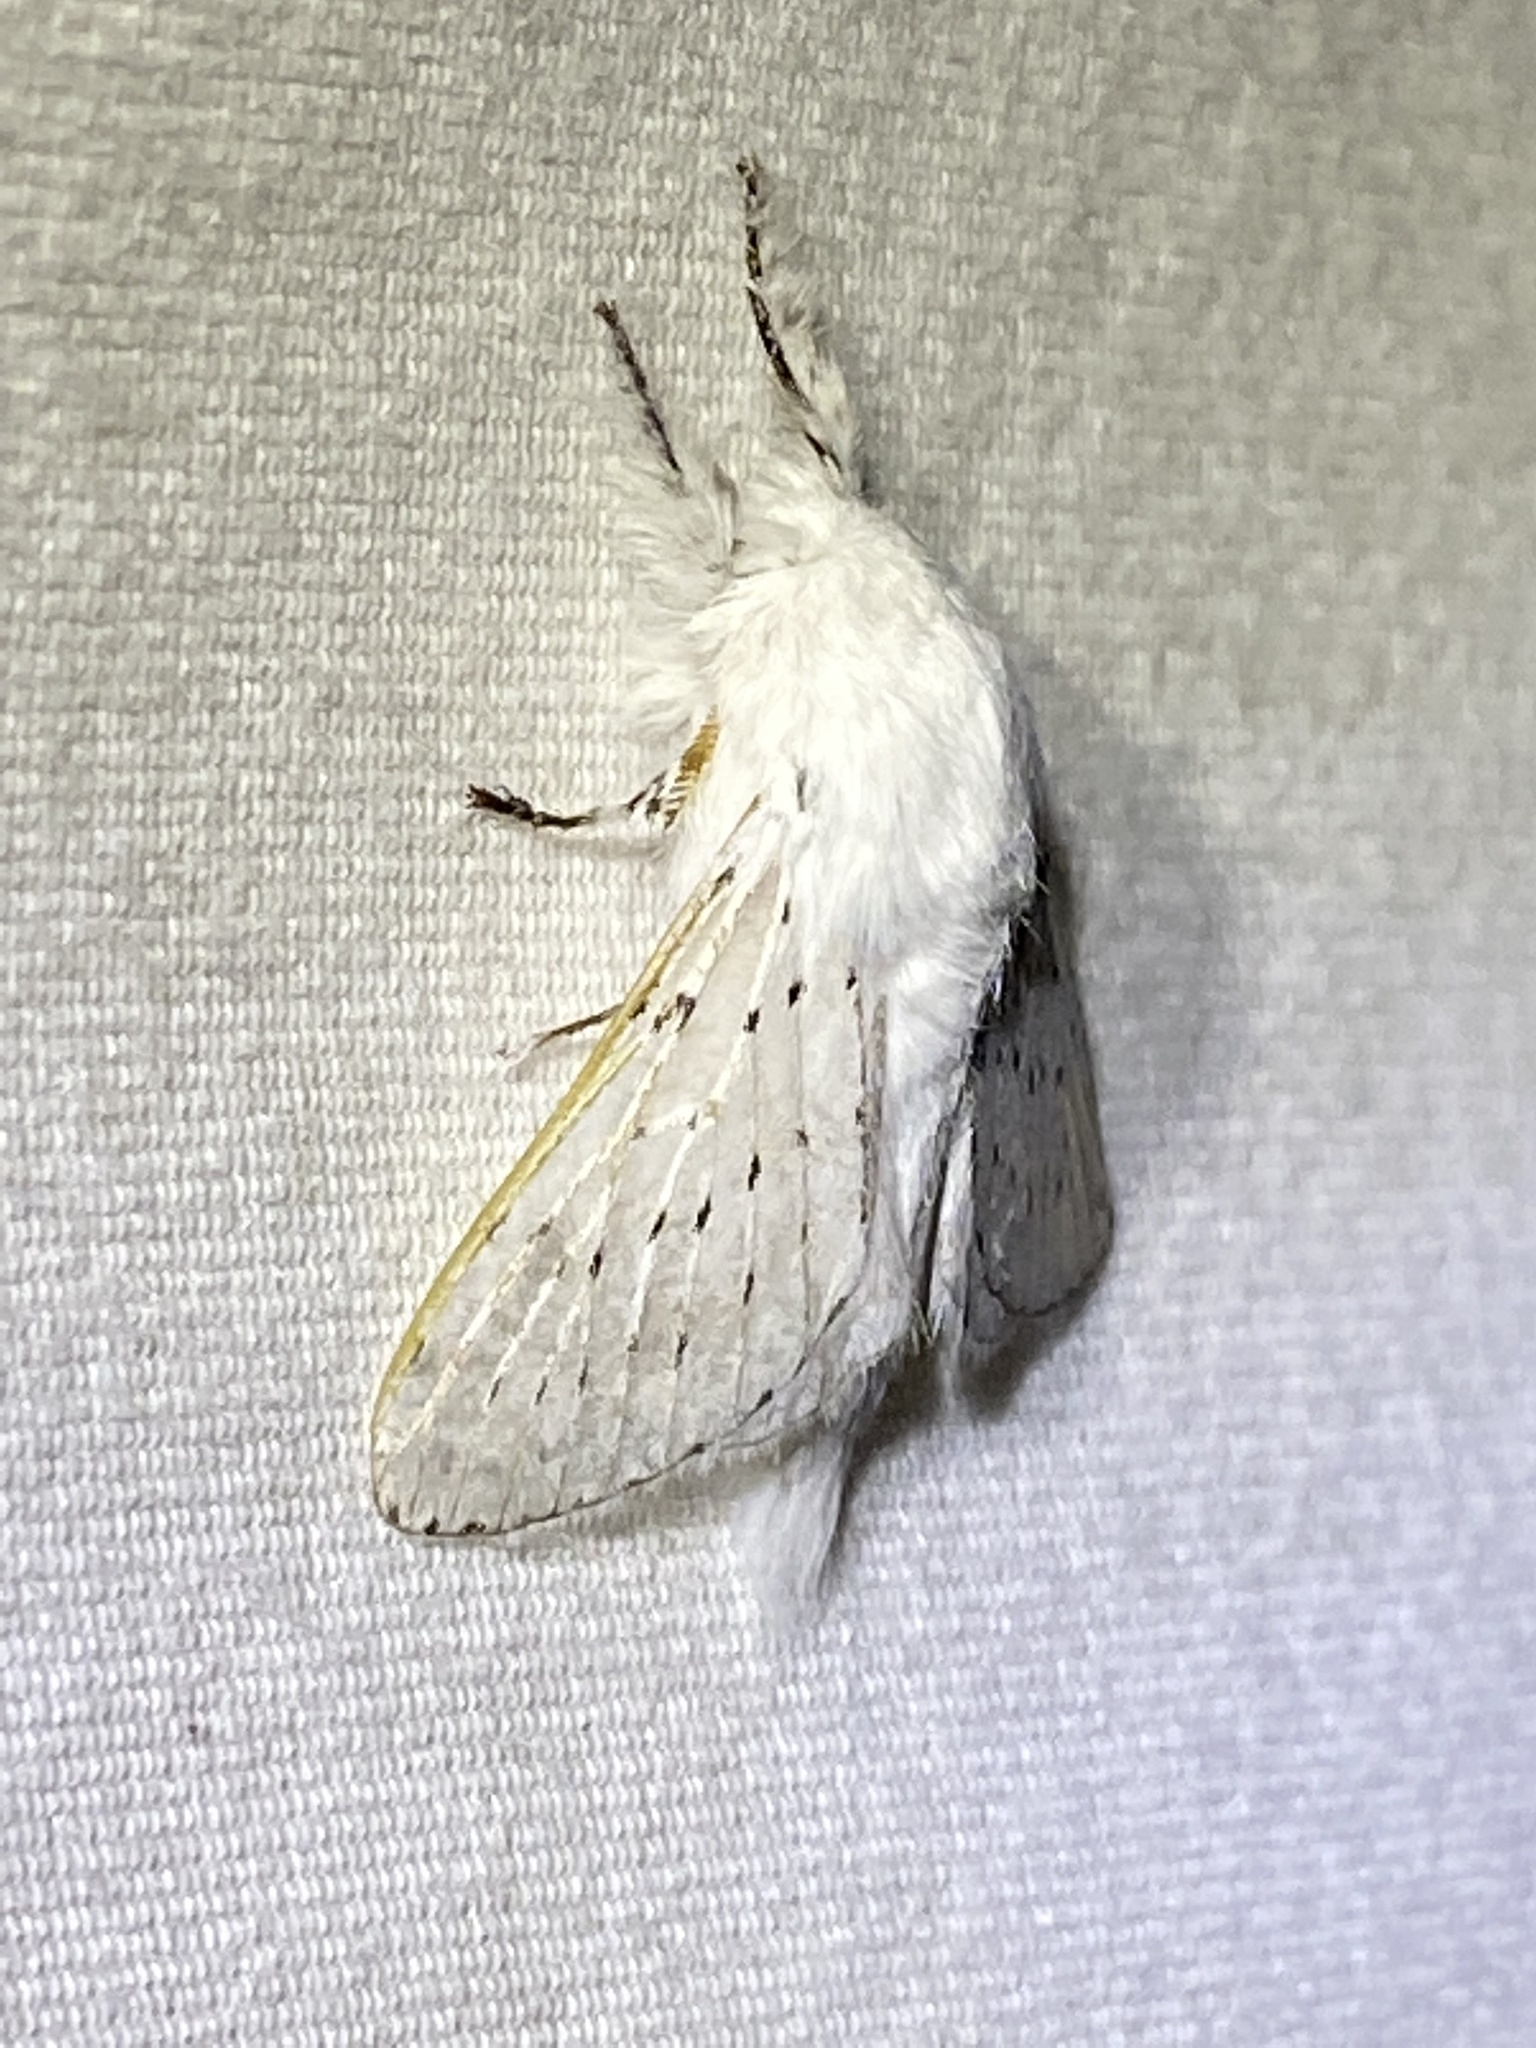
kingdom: Animalia
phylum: Arthropoda
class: Insecta
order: Lepidoptera
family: Lasiocampidae
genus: Artace
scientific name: Artace cribrarius
